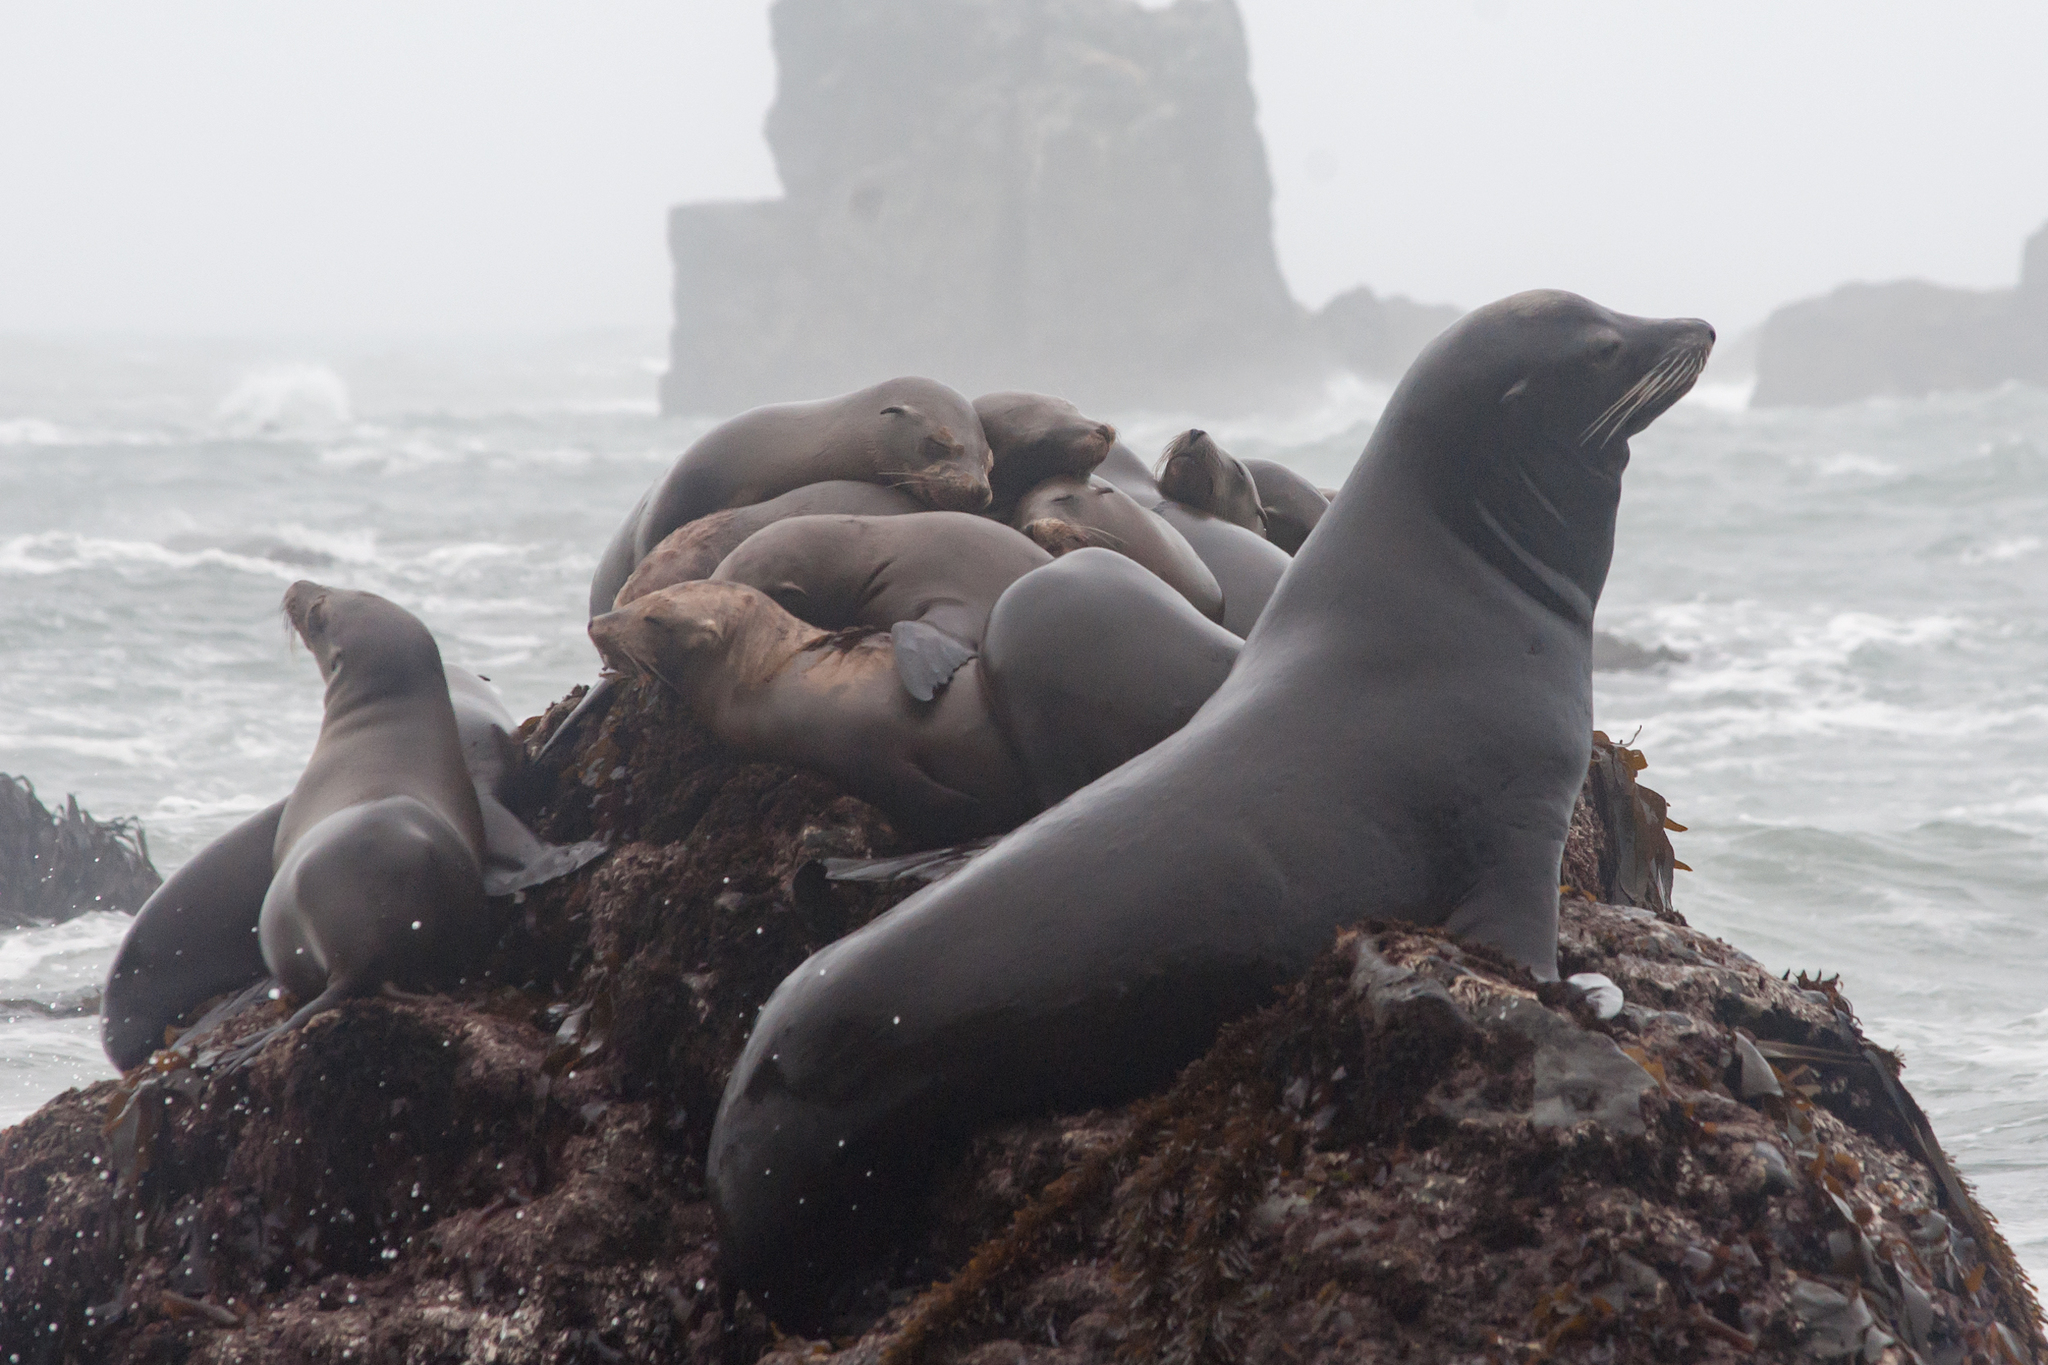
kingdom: Animalia
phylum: Chordata
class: Mammalia
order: Carnivora
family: Otariidae
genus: Zalophus
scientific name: Zalophus californianus
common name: California sea lion
